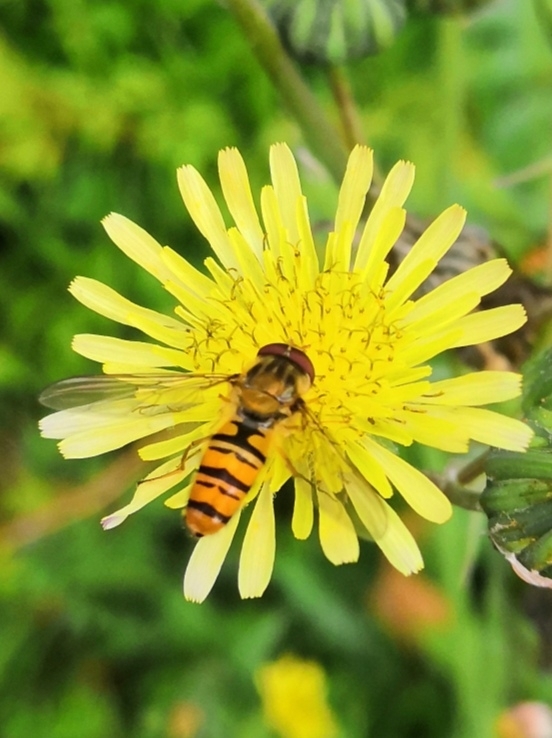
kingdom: Animalia
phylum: Arthropoda
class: Insecta
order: Diptera
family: Syrphidae
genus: Episyrphus
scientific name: Episyrphus balteatus
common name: Marmalade hoverfly
